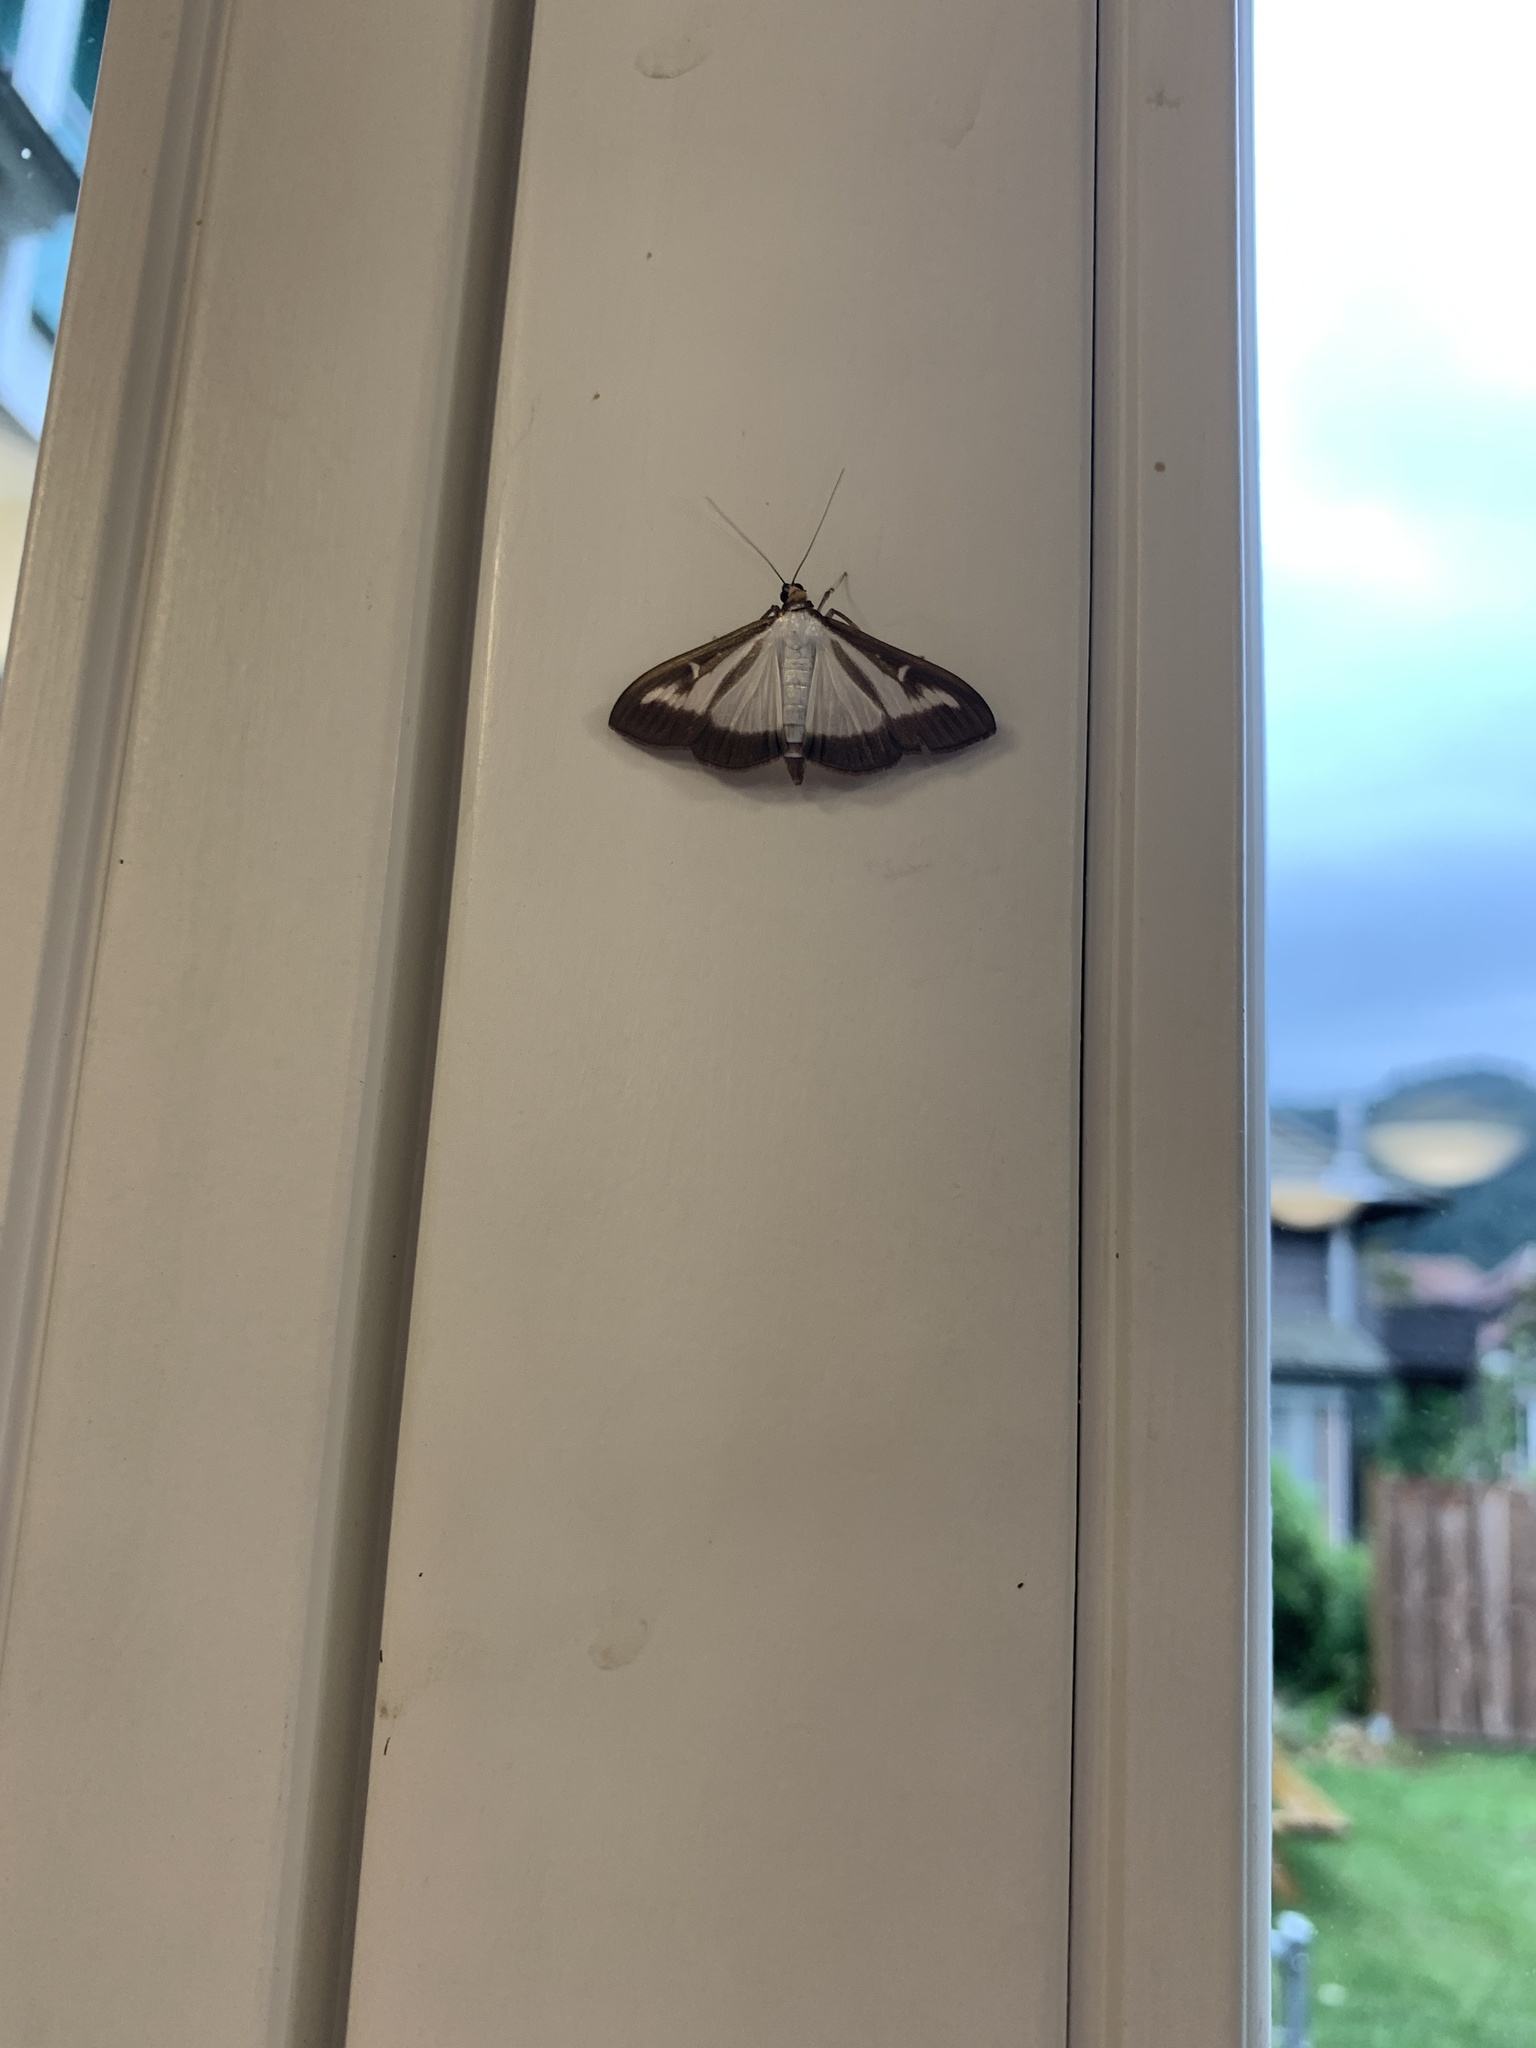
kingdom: Animalia
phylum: Arthropoda
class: Insecta
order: Lepidoptera
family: Crambidae
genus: Cydalima
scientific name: Cydalima perspectalis
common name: Box tree moth
